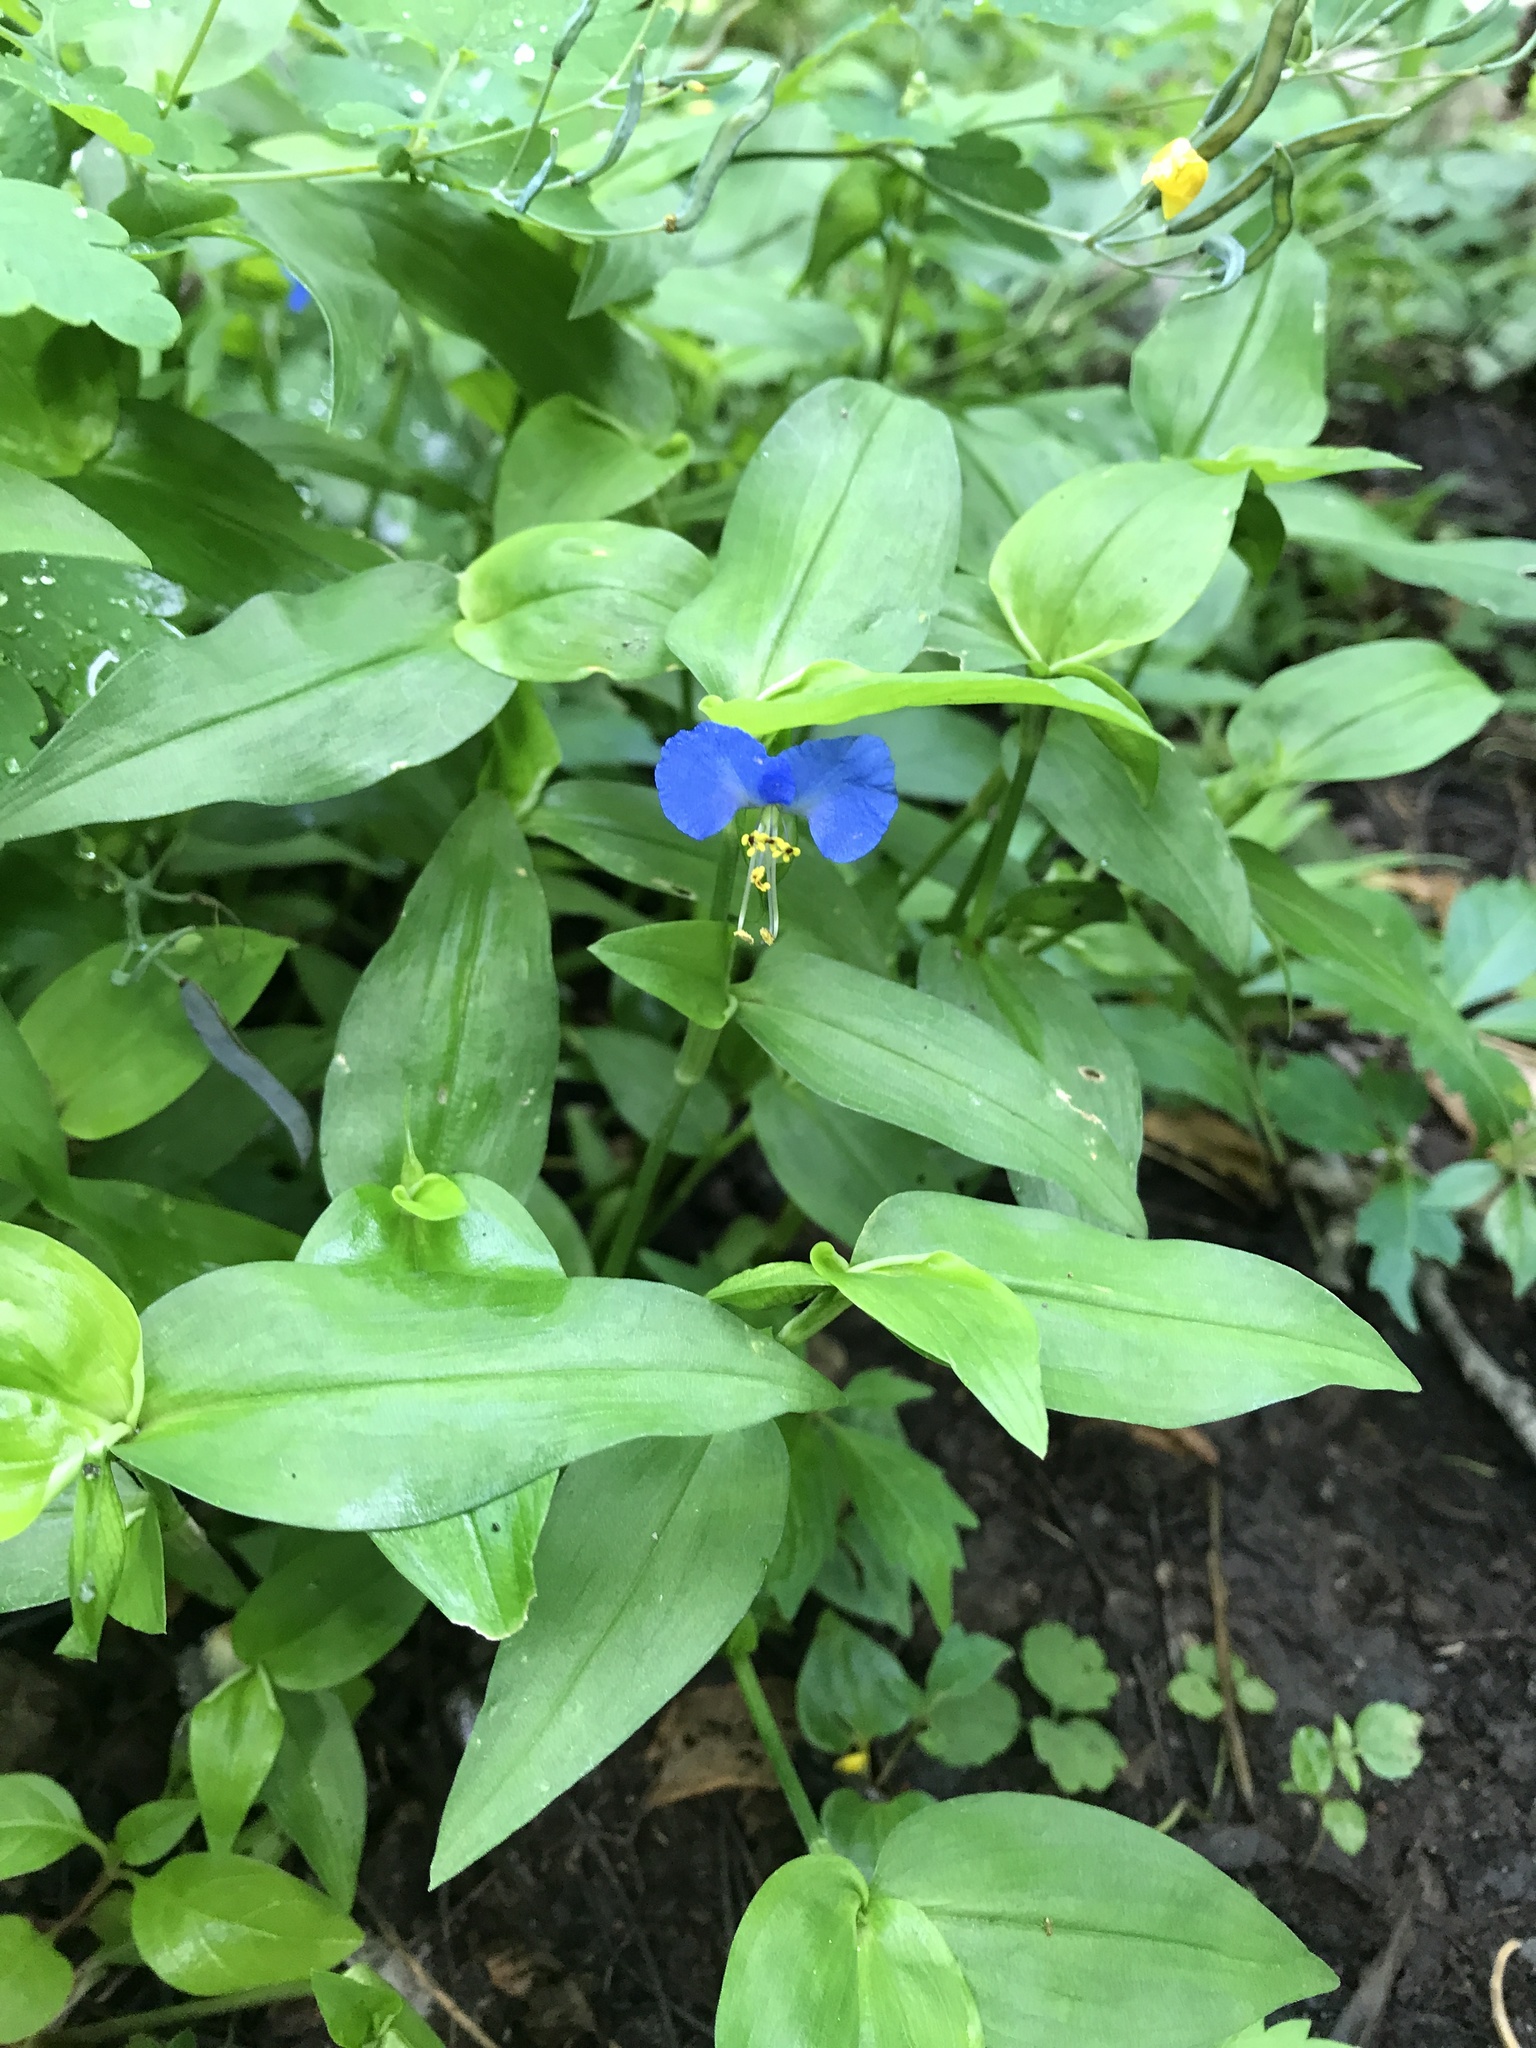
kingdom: Plantae
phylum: Tracheophyta
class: Liliopsida
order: Commelinales
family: Commelinaceae
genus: Commelina
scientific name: Commelina communis
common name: Asiatic dayflower
